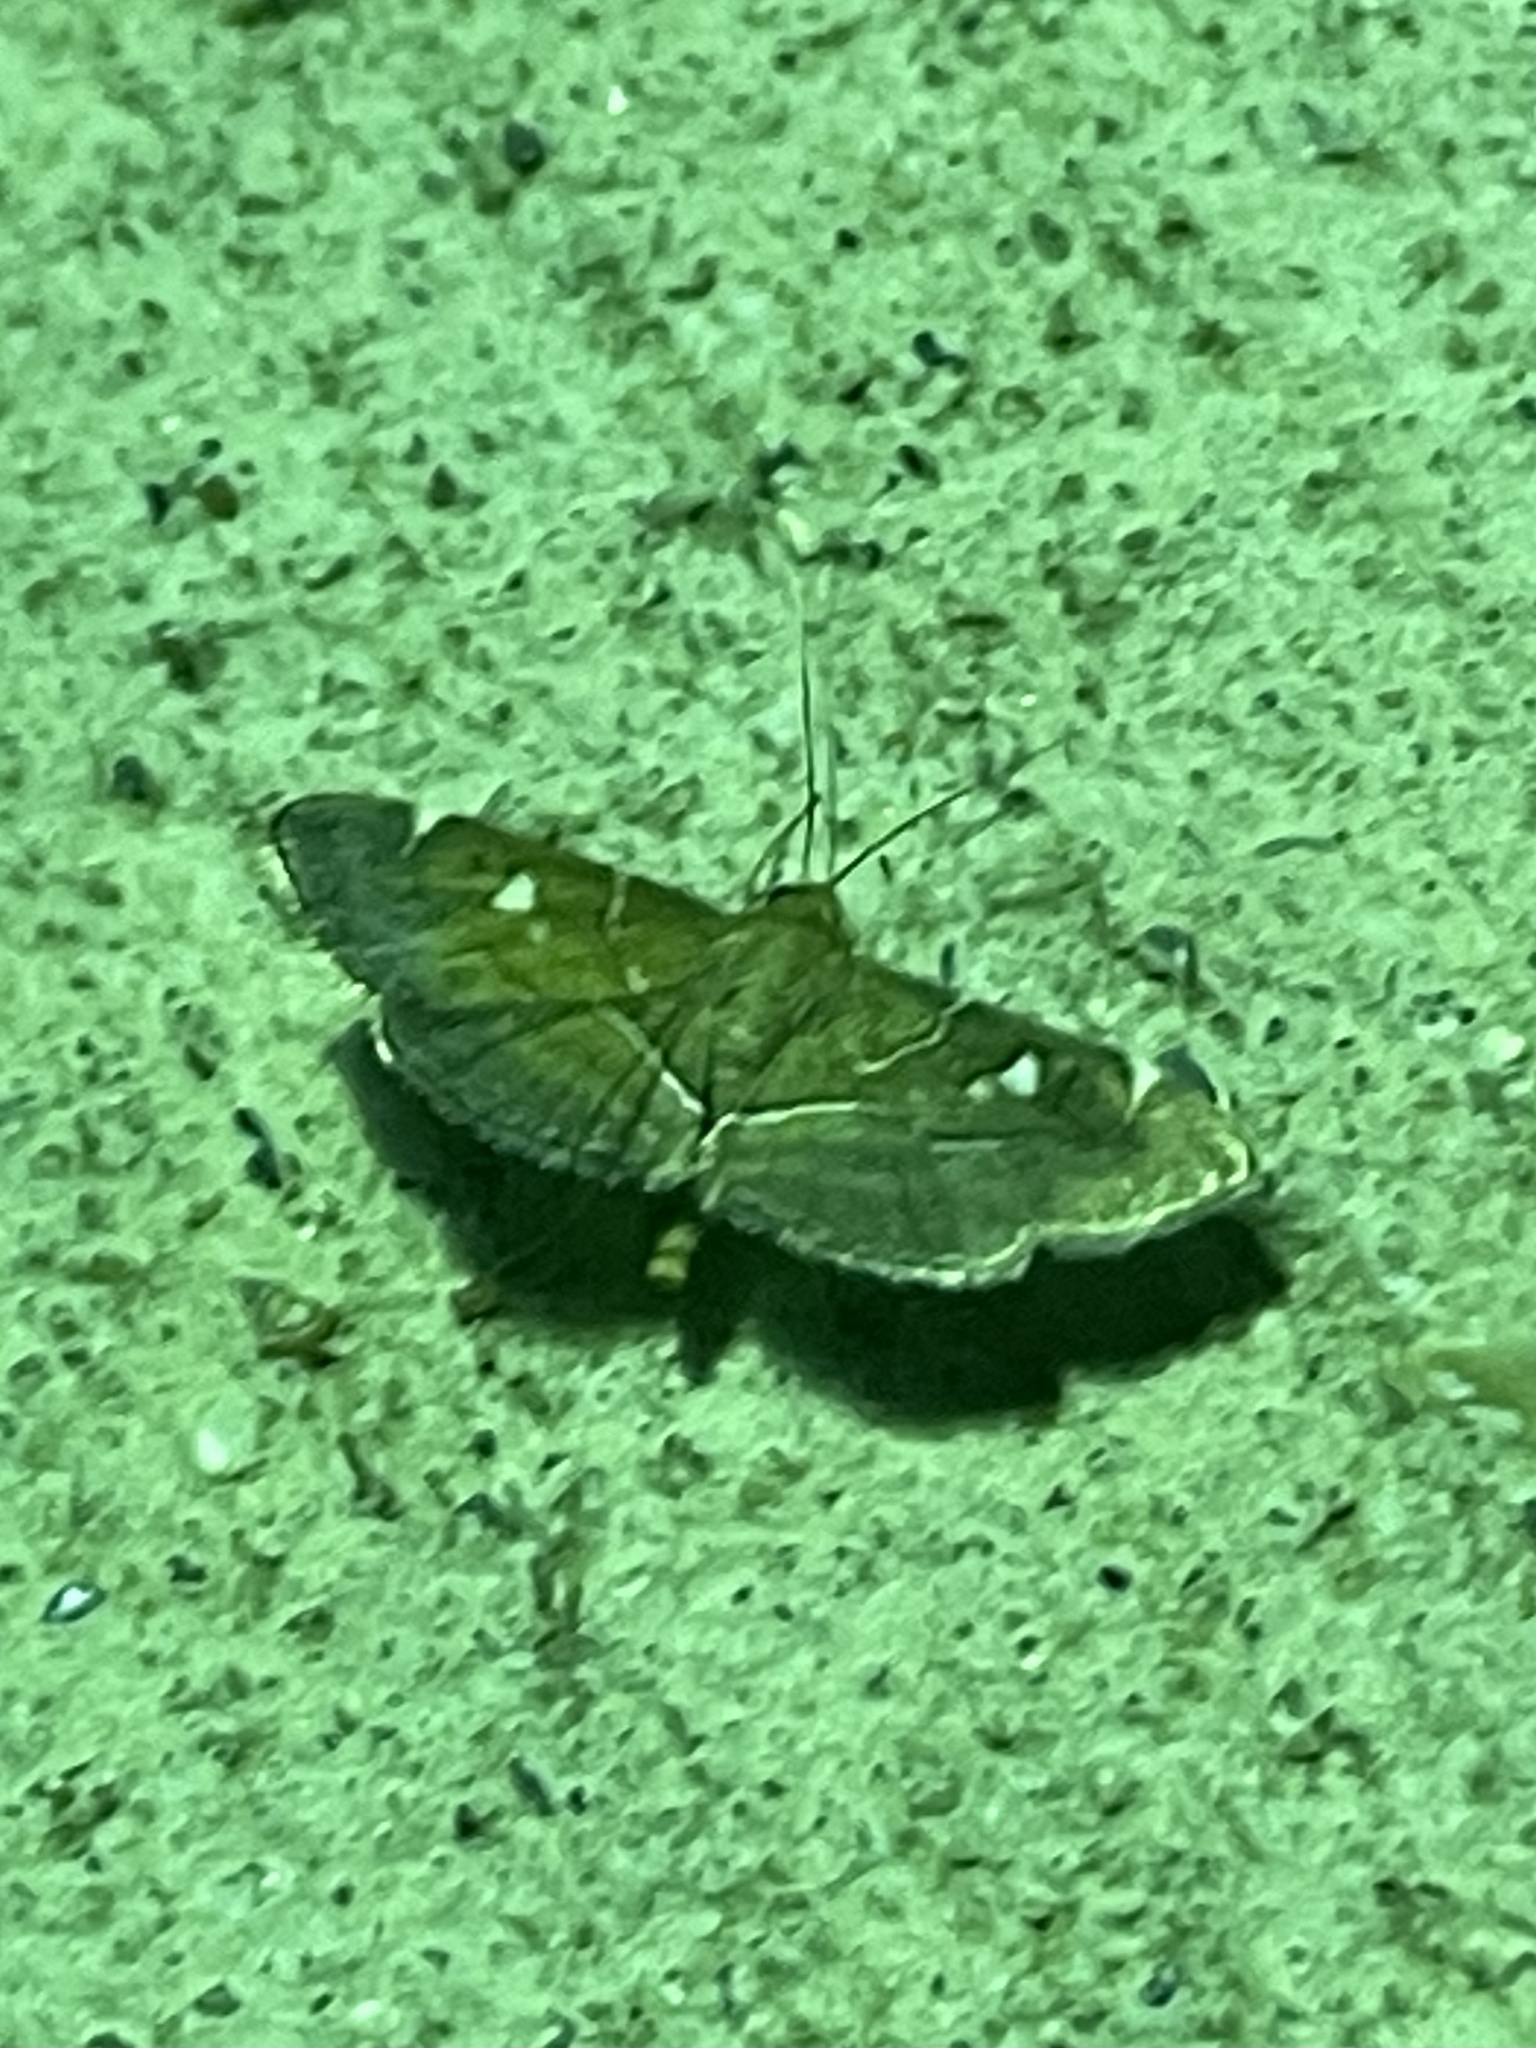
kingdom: Animalia
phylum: Arthropoda
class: Insecta
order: Lepidoptera
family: Crambidae
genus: Lamprosema
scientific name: Lamprosema victoriae
